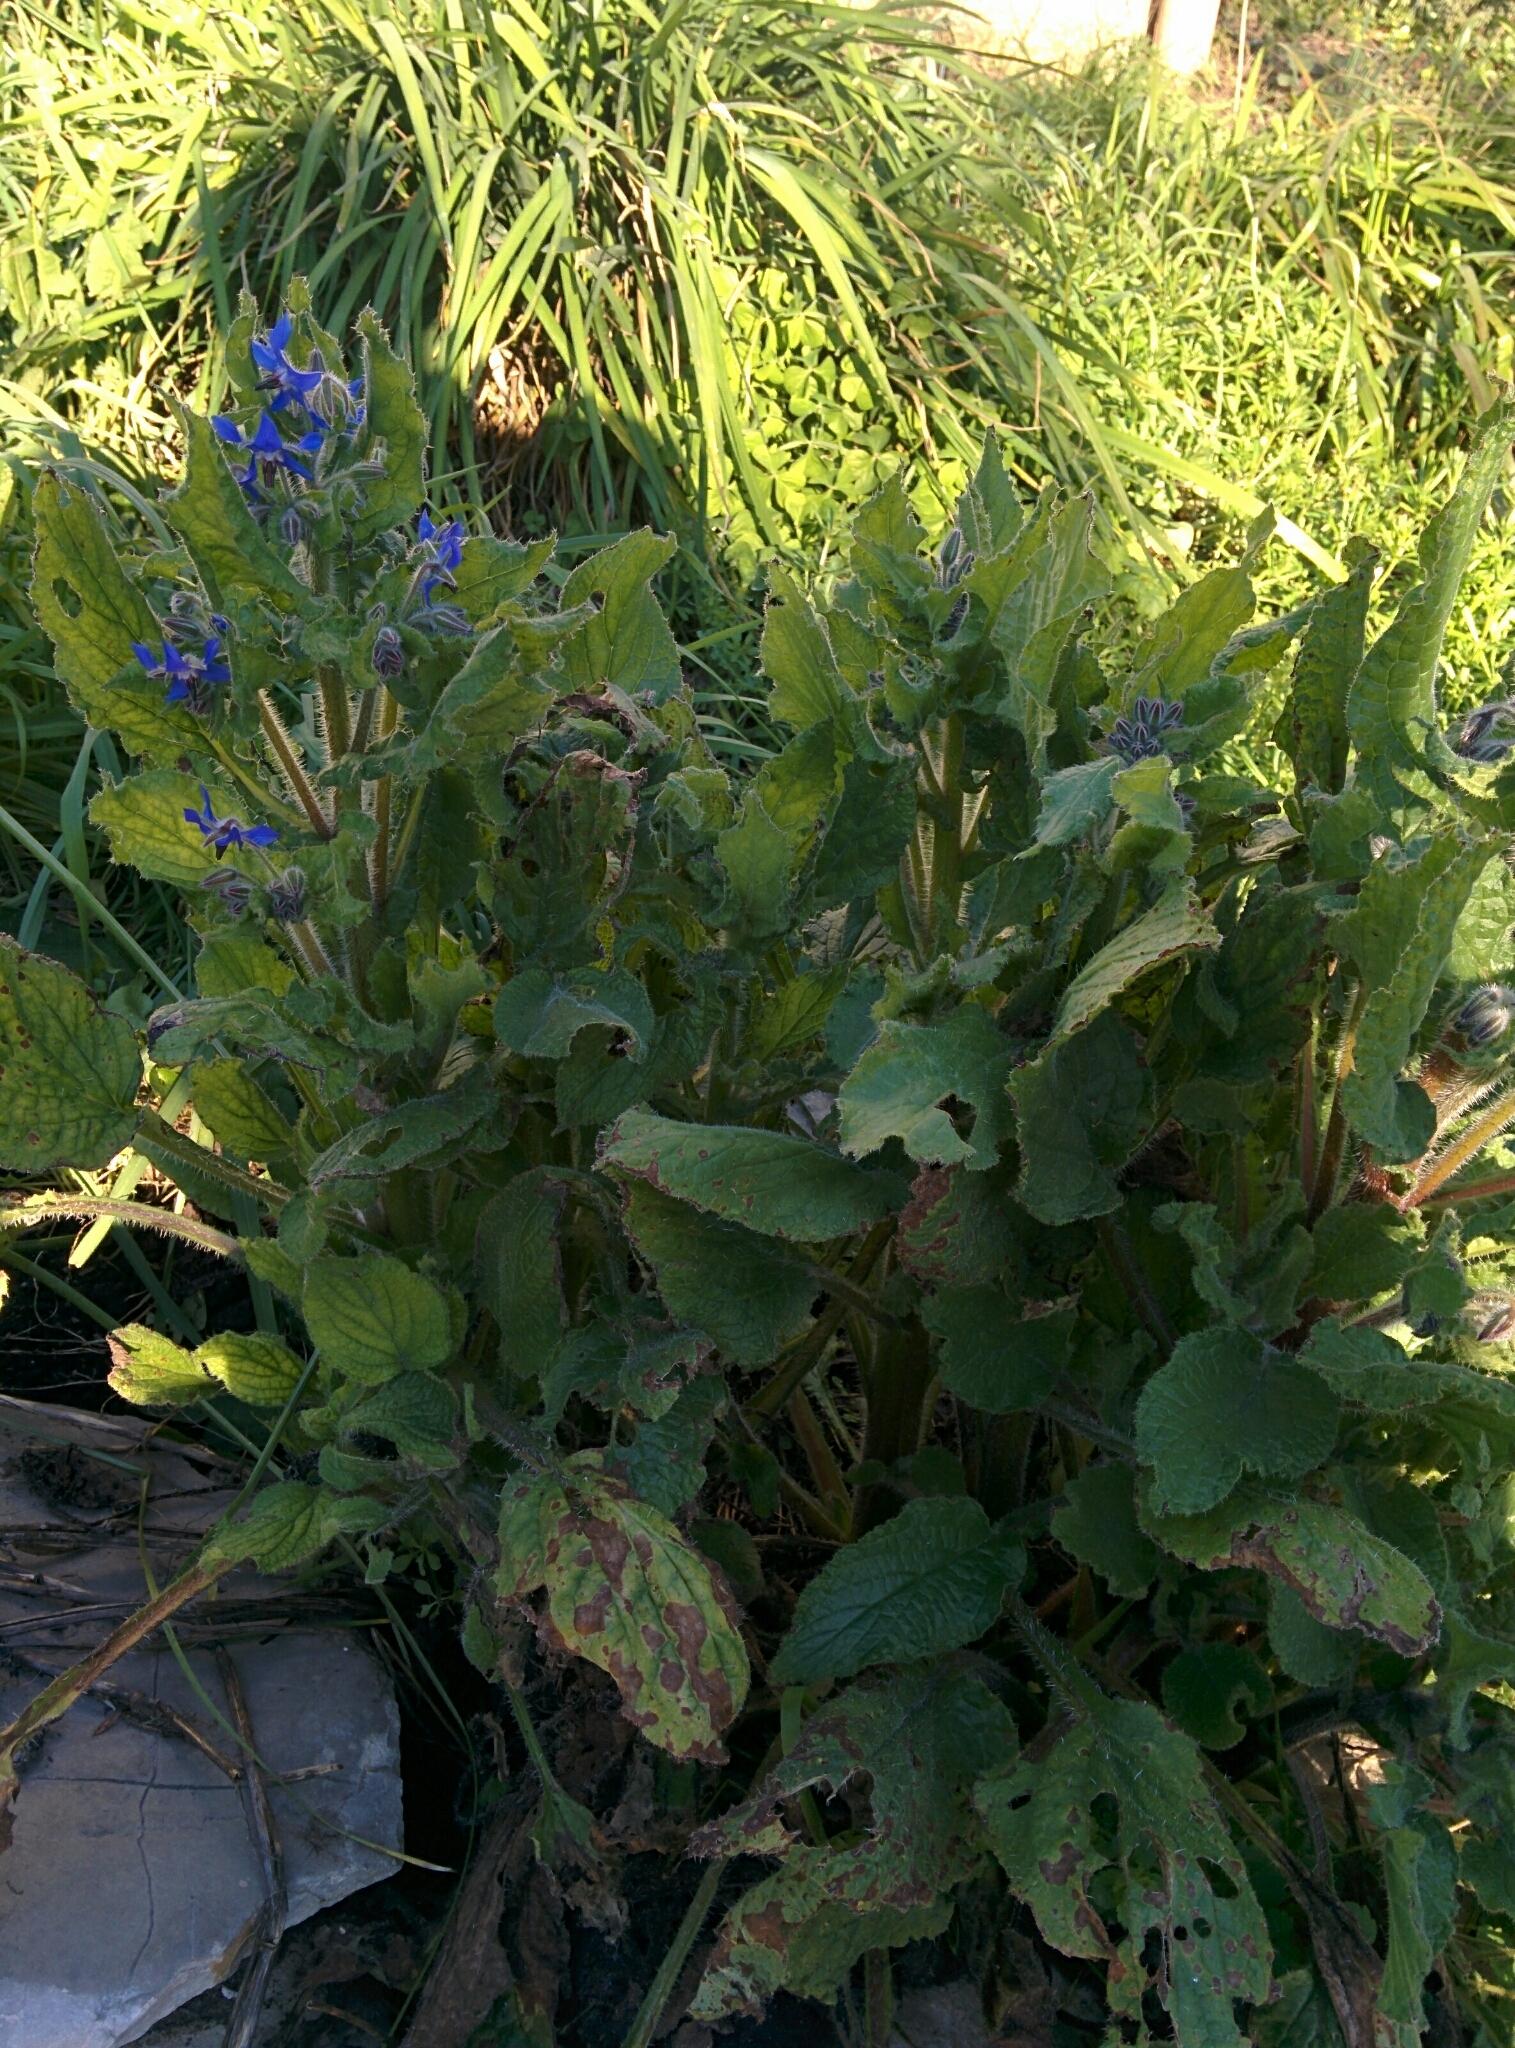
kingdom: Plantae
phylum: Tracheophyta
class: Magnoliopsida
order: Boraginales
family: Boraginaceae
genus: Borago
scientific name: Borago officinalis
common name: Borage
